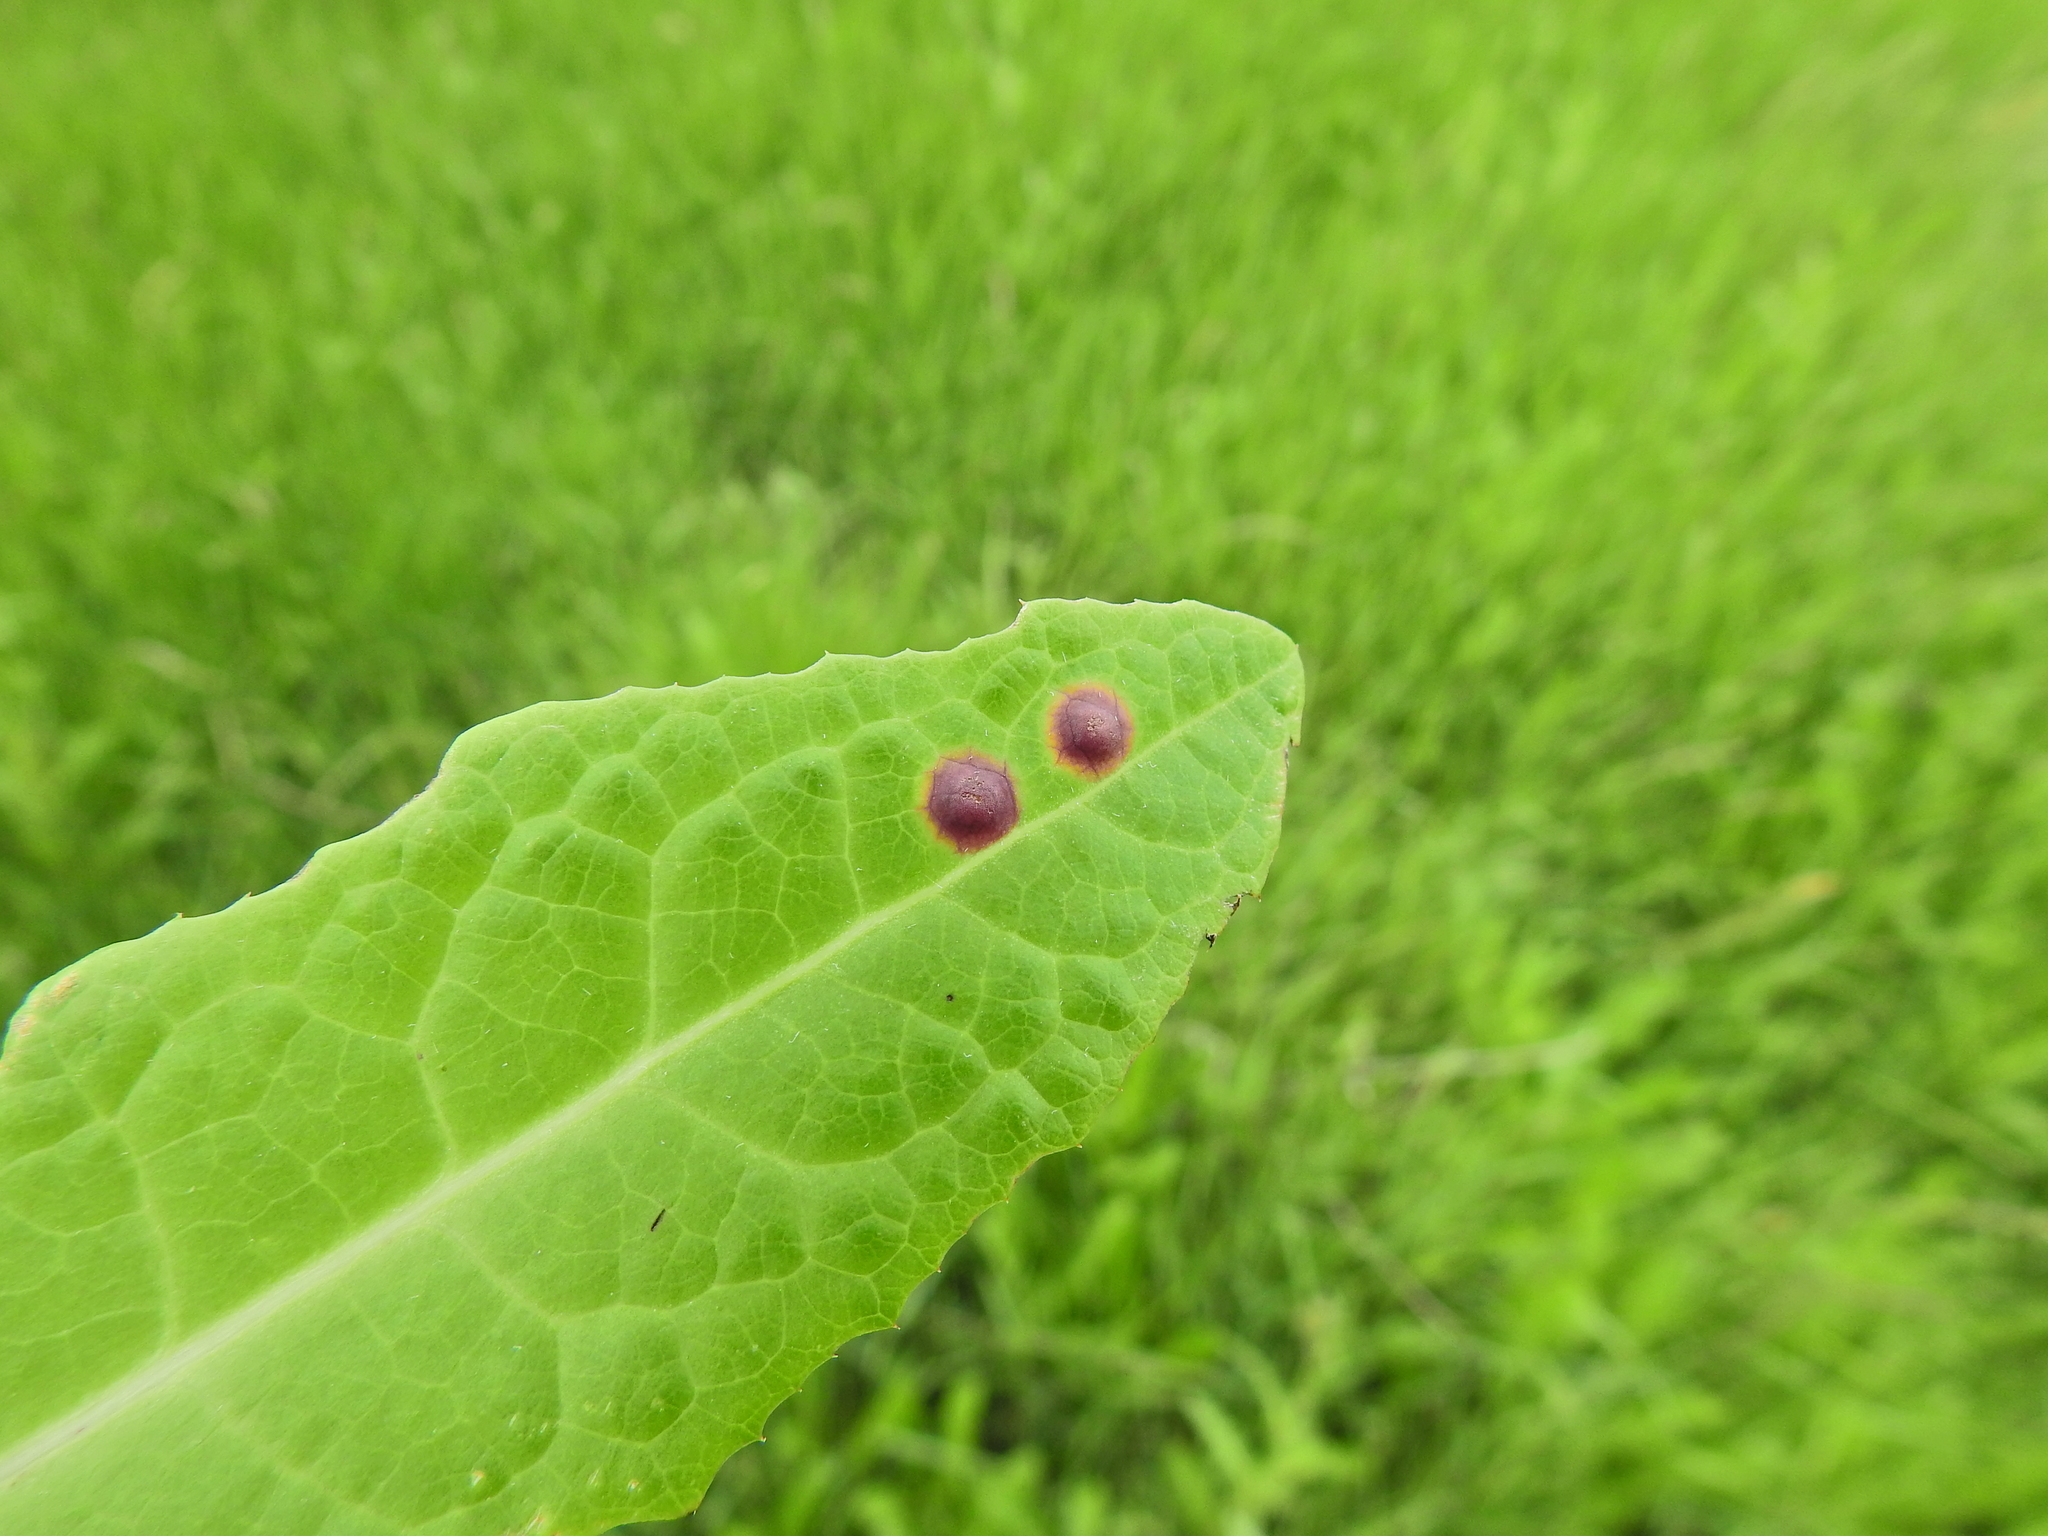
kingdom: Animalia
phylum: Arthropoda
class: Insecta
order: Diptera
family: Cecidomyiidae
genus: Cystiphora
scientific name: Cystiphora sonchi
